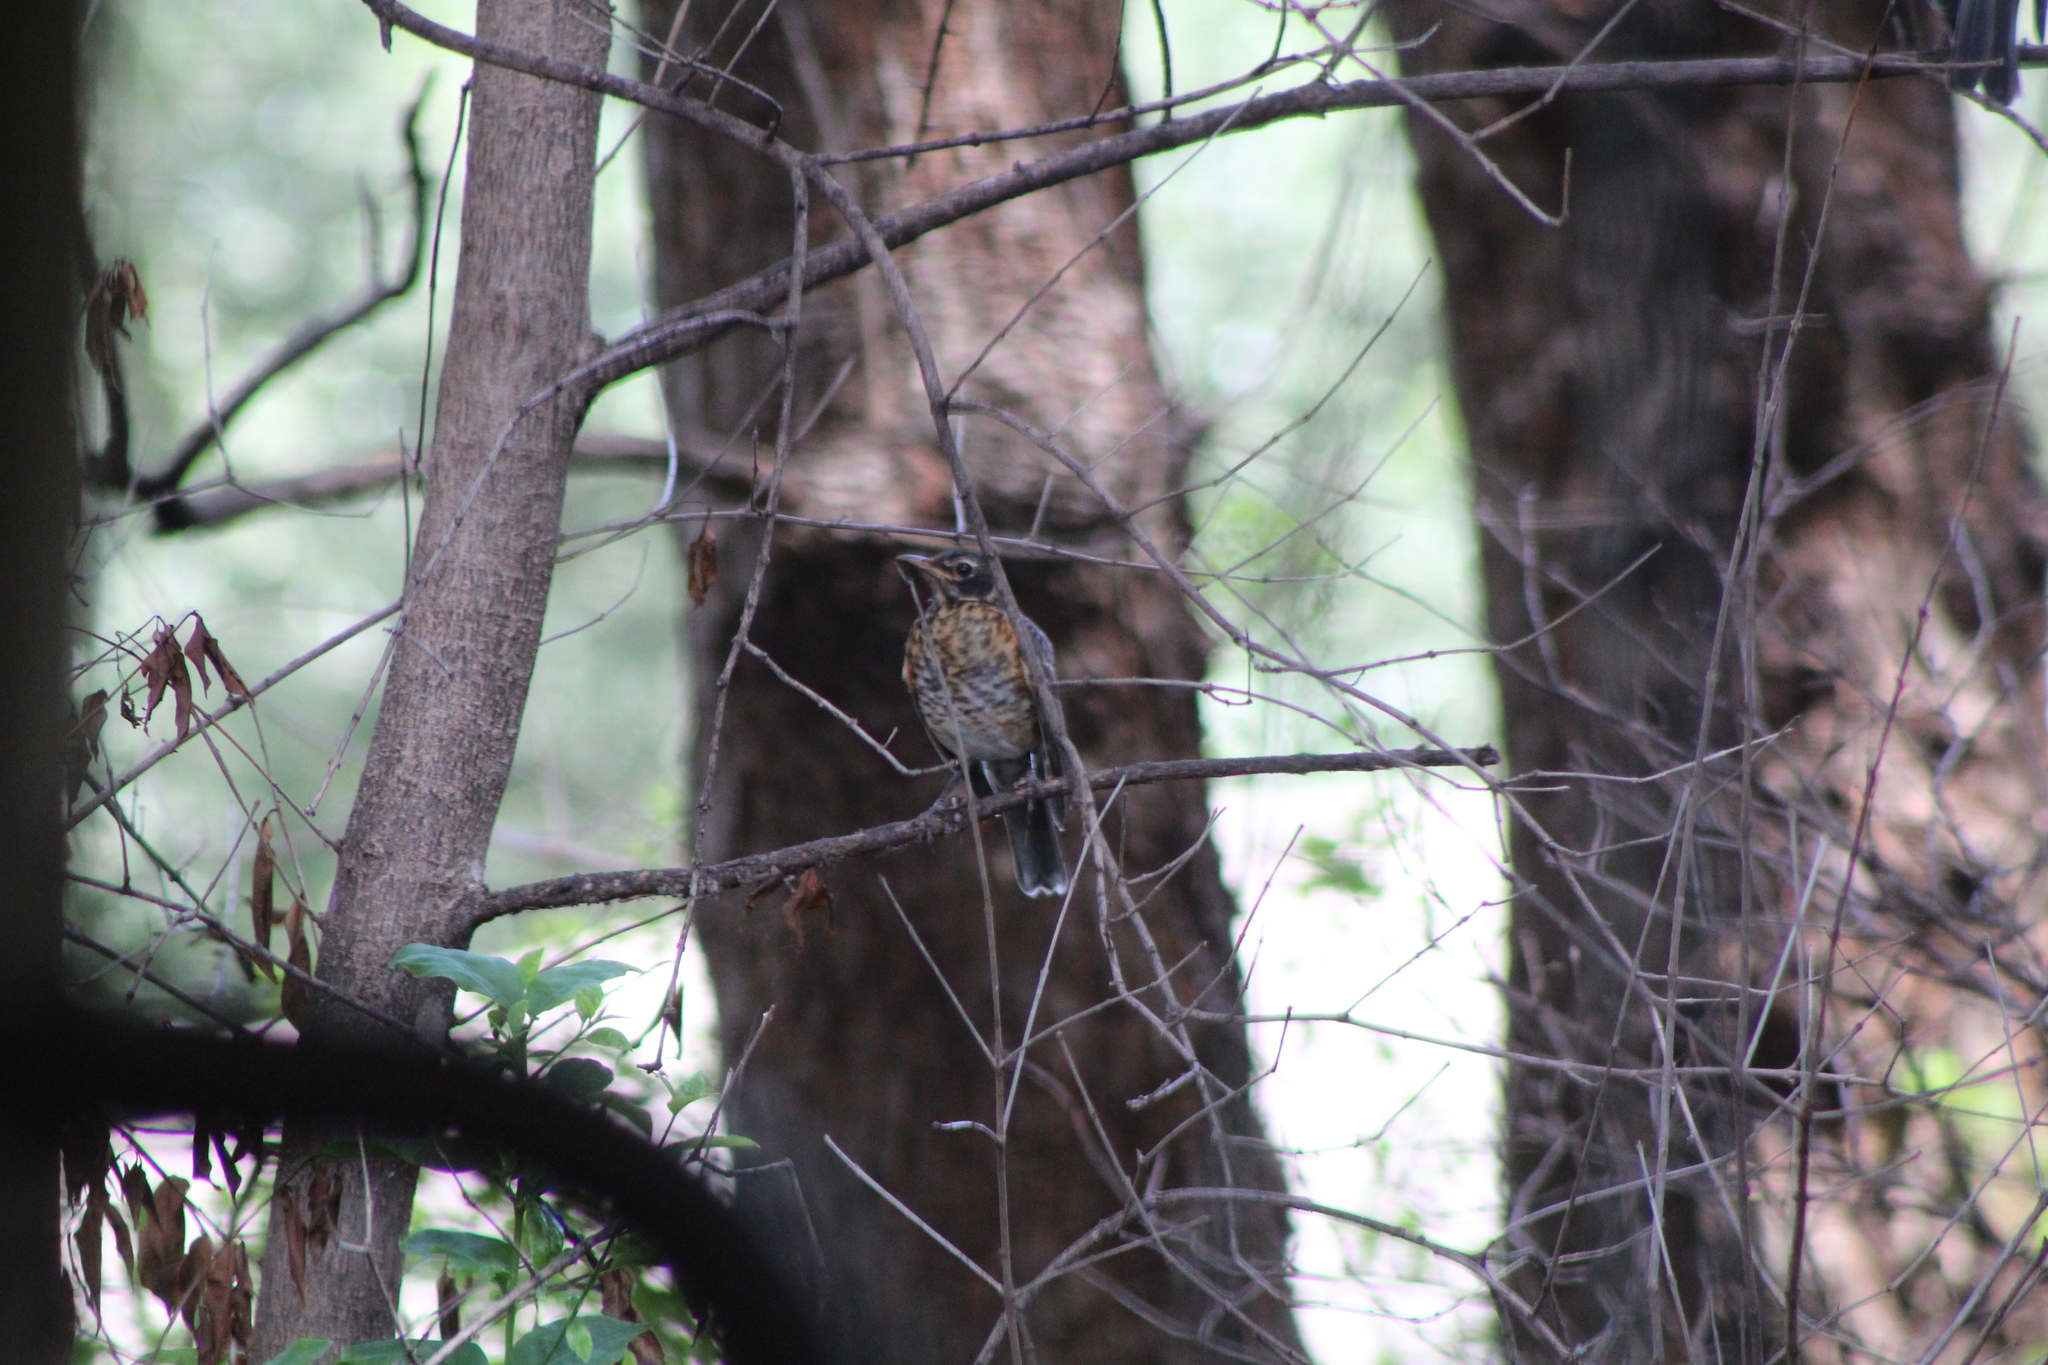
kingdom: Animalia
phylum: Chordata
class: Aves
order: Passeriformes
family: Turdidae
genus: Turdus
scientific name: Turdus migratorius
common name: American robin
